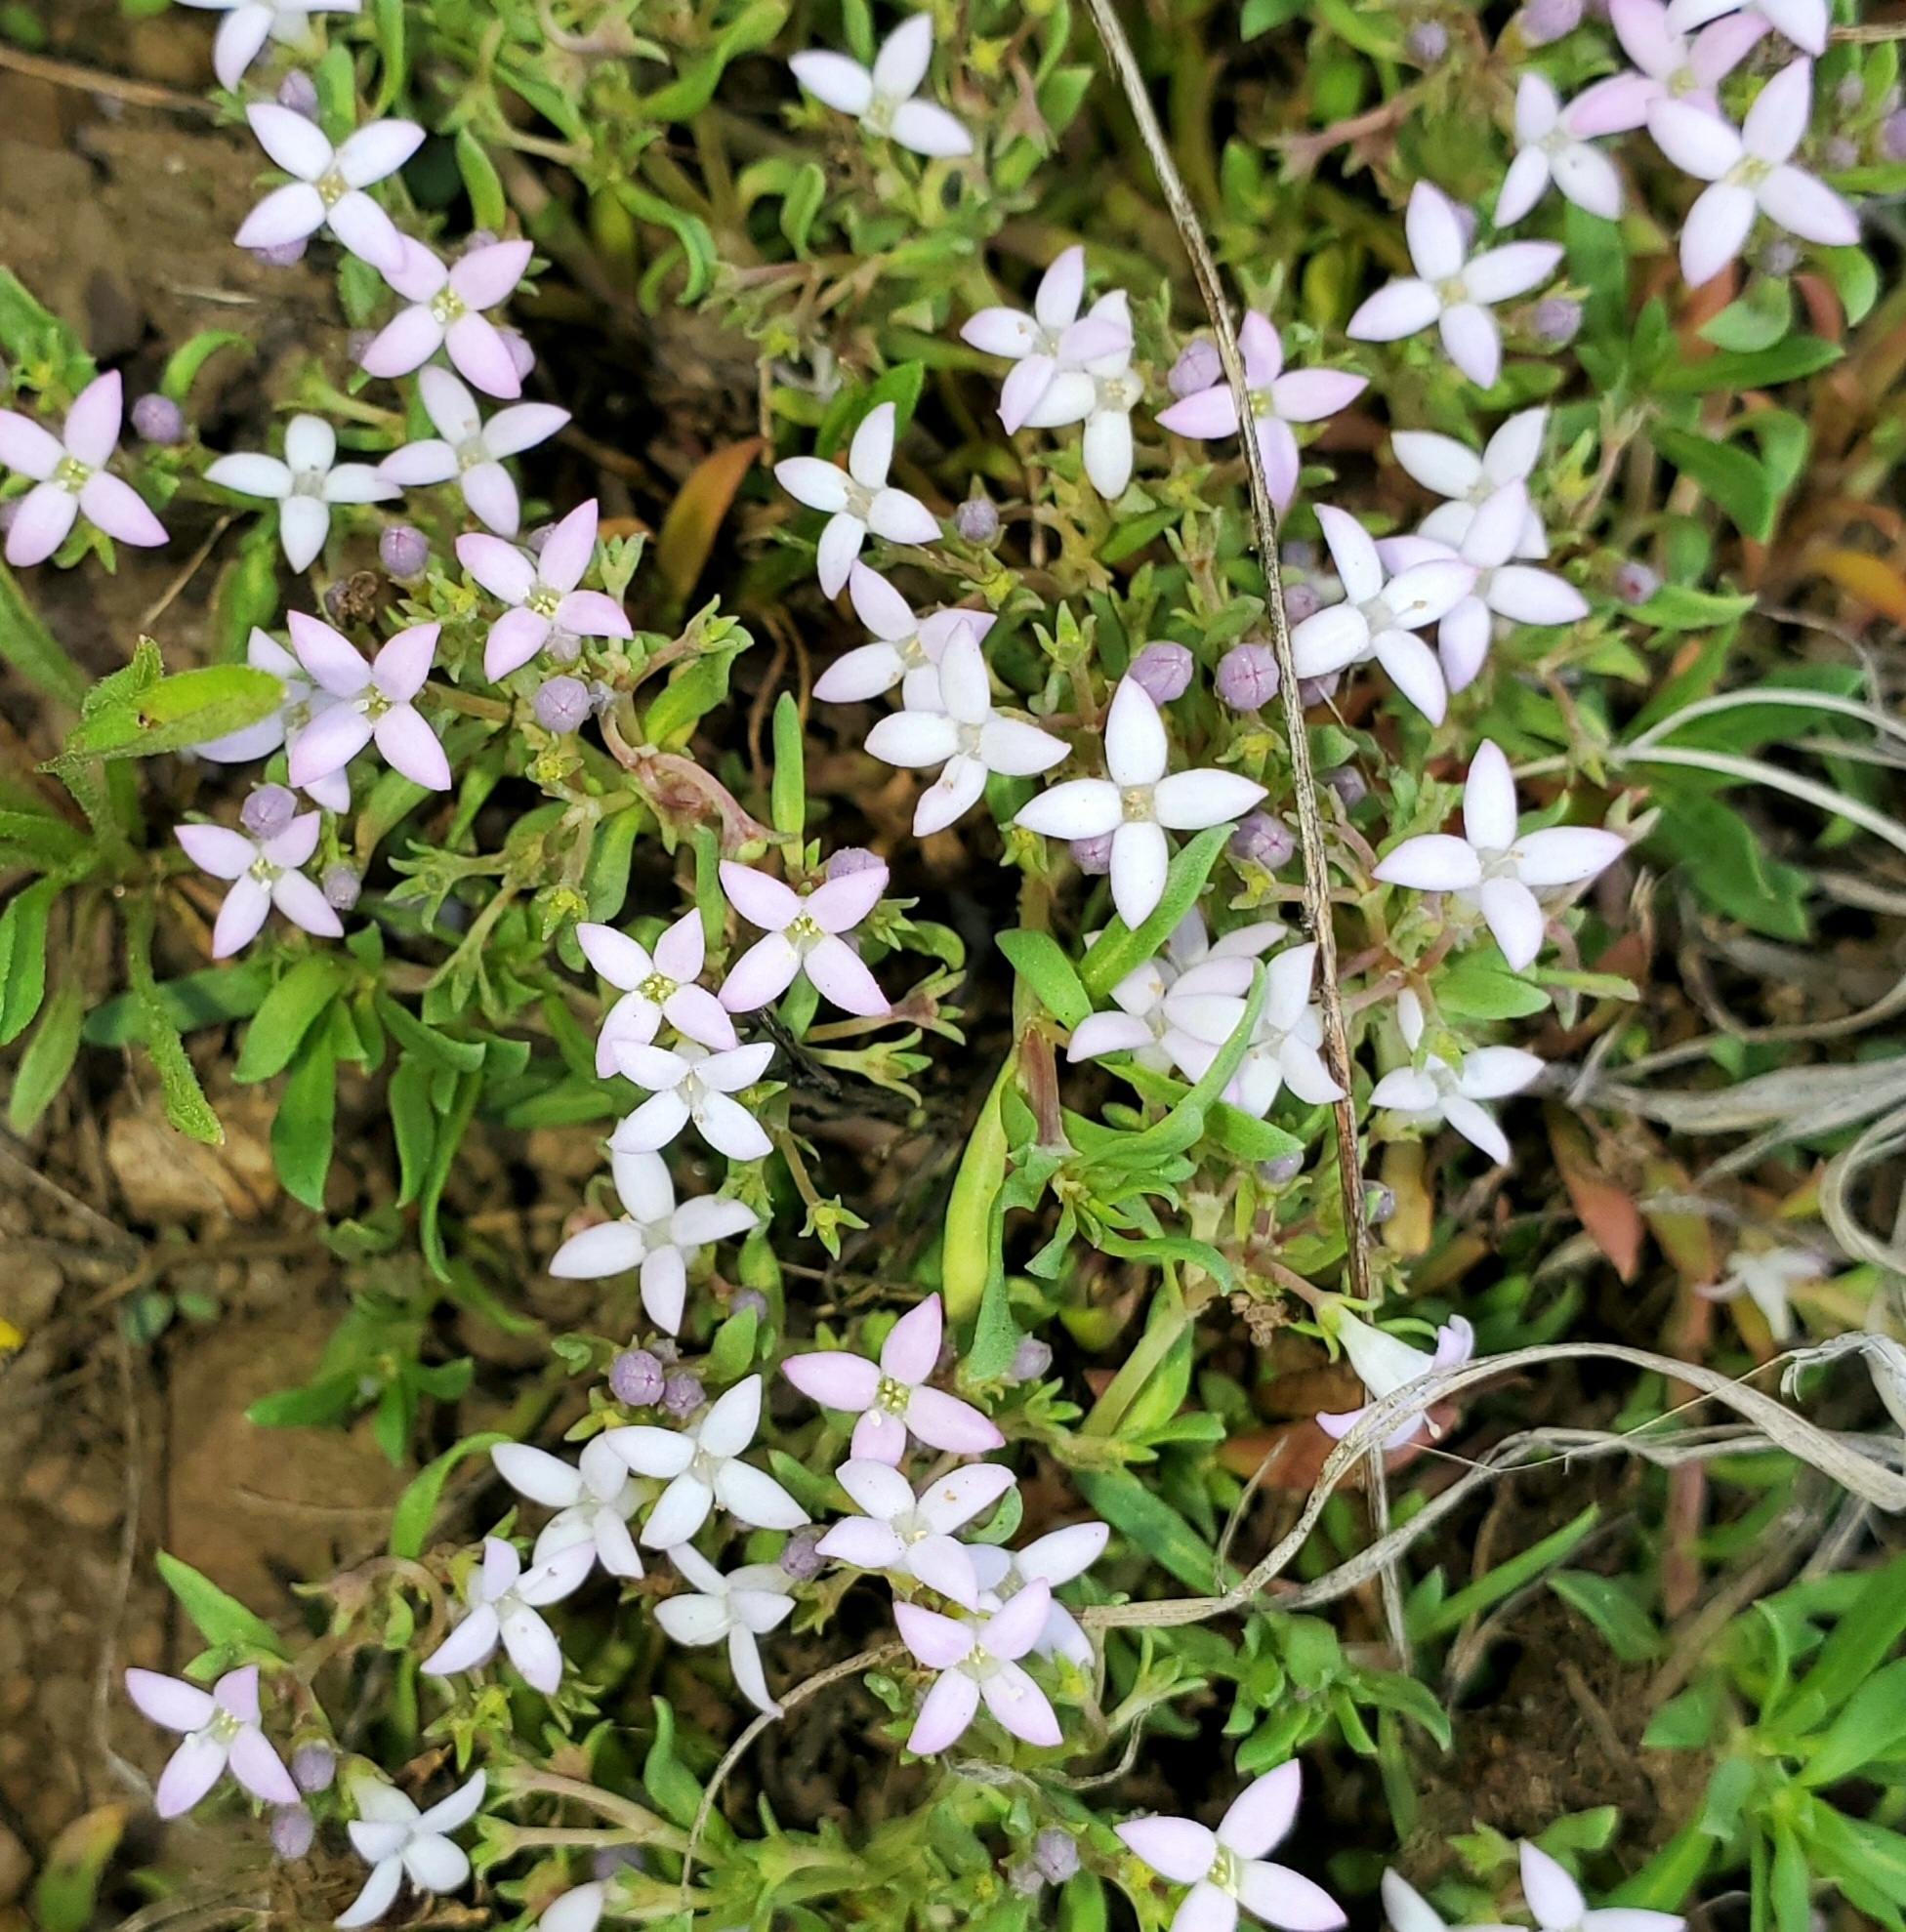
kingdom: Plantae
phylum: Tracheophyta
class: Magnoliopsida
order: Gentianales
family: Rubiaceae
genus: Houstonia
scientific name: Houstonia wrightii
